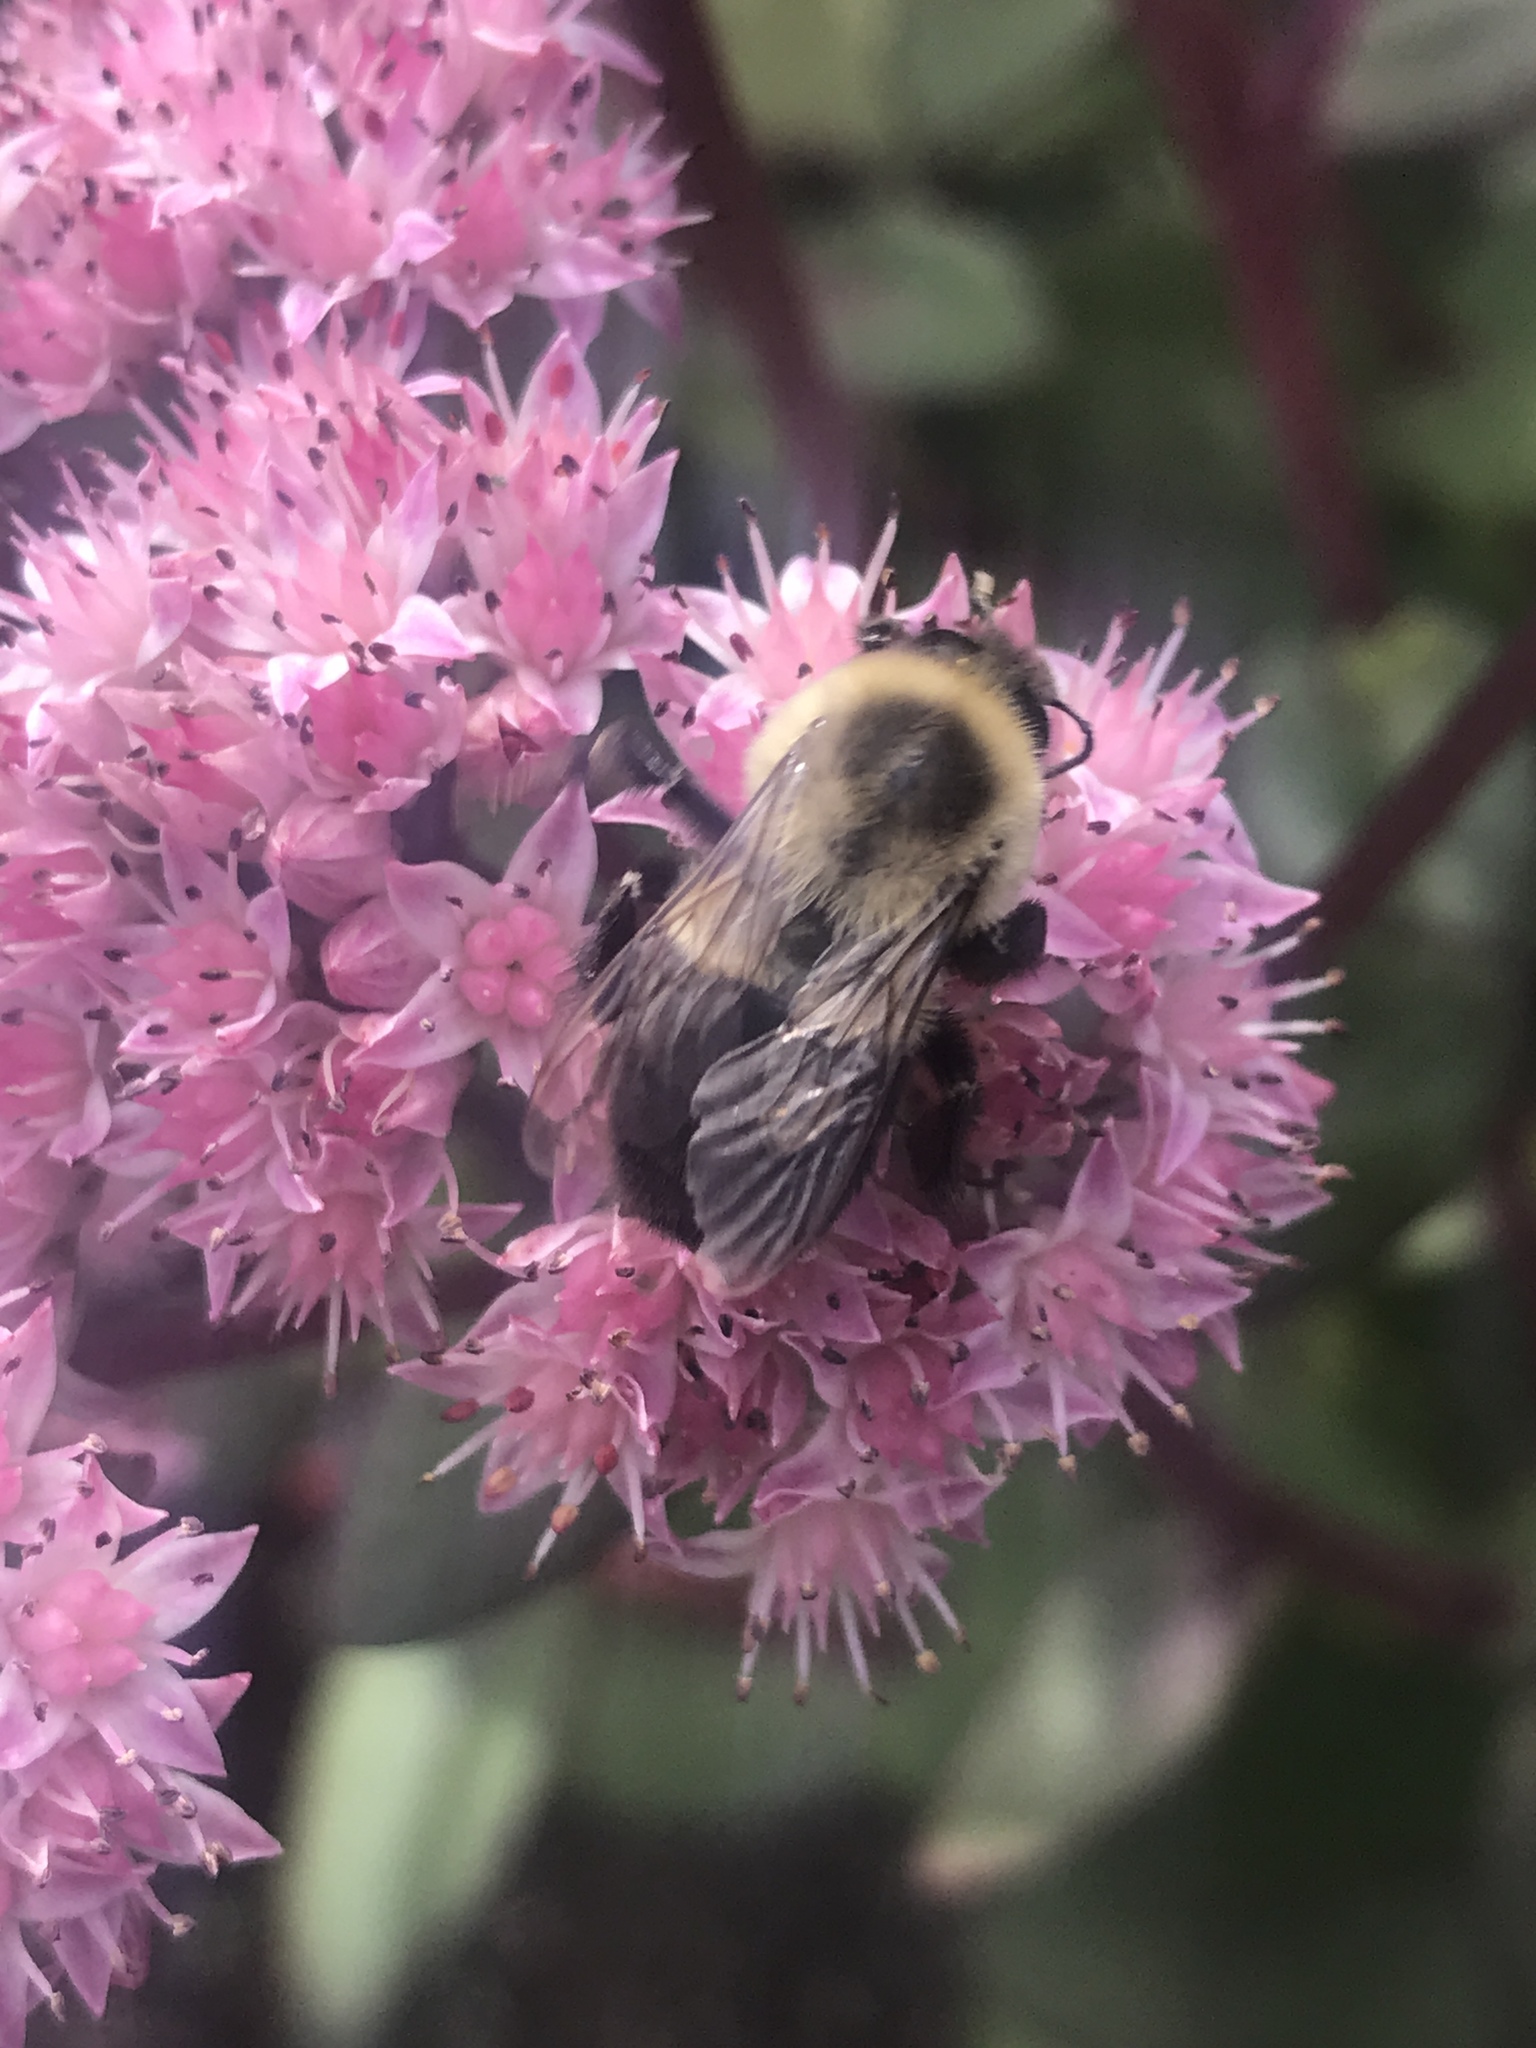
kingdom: Animalia
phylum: Arthropoda
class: Insecta
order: Hymenoptera
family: Apidae
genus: Bombus
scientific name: Bombus impatiens
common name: Common eastern bumble bee
